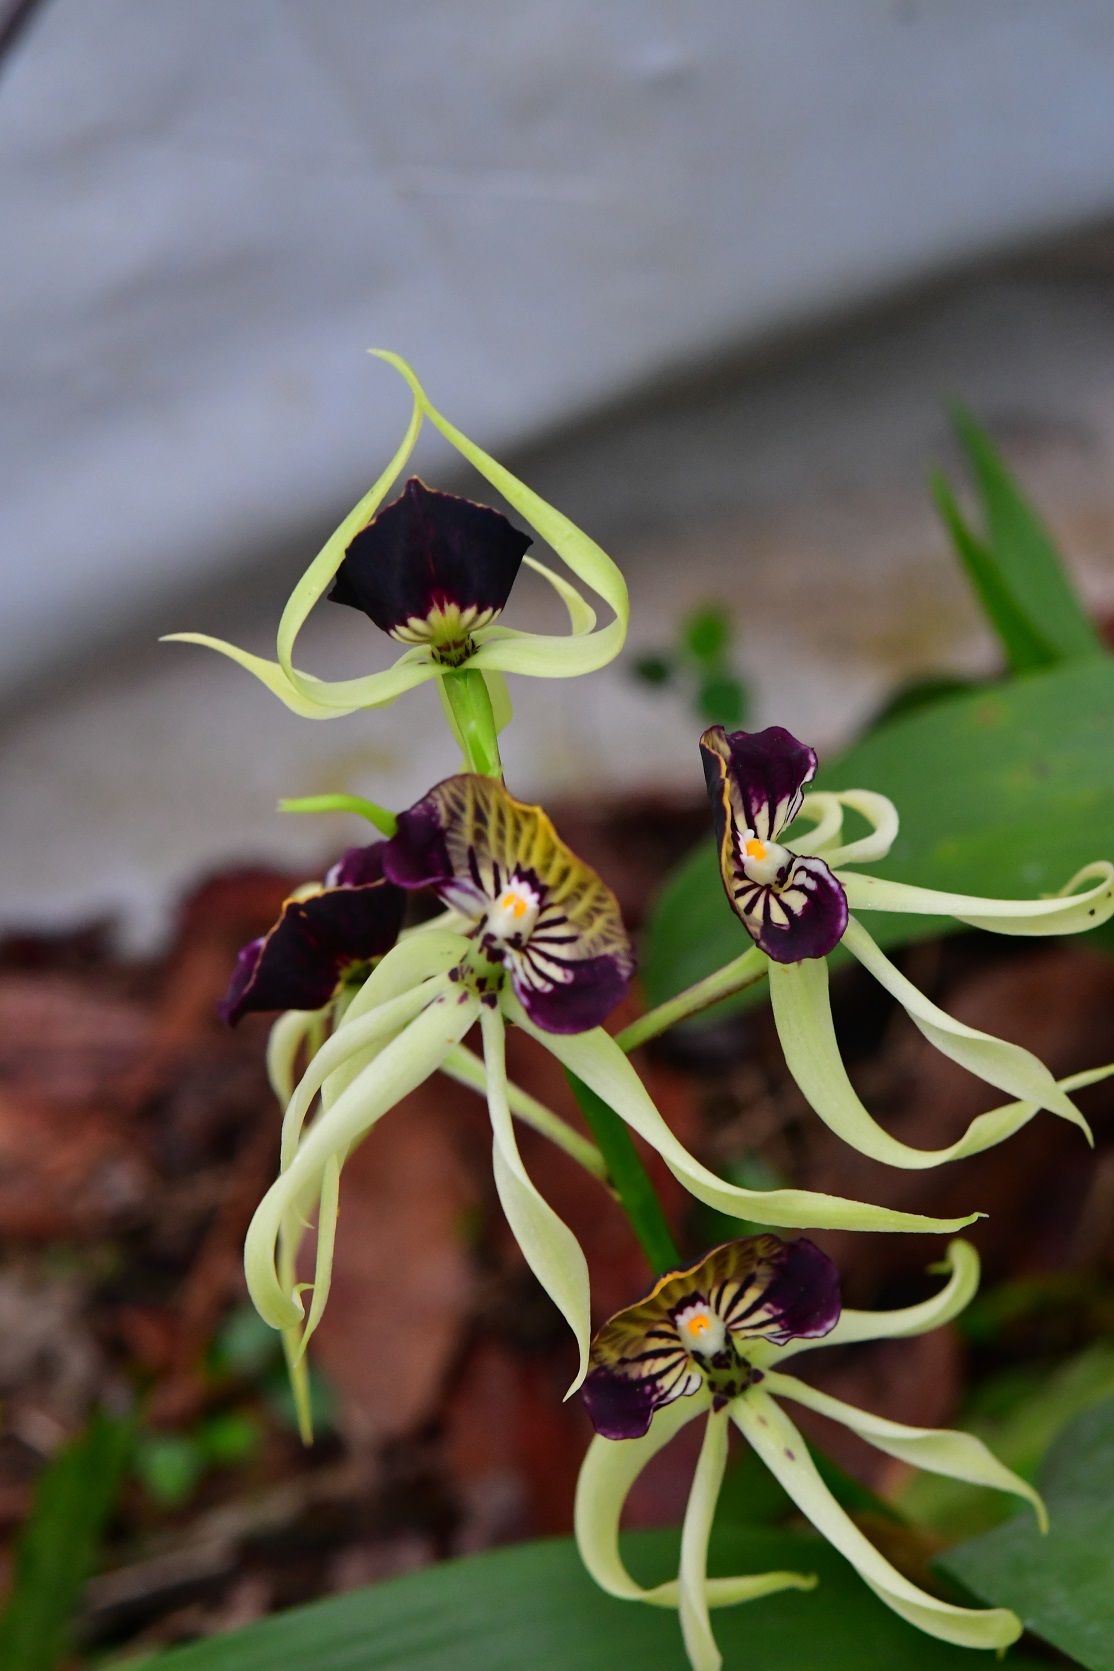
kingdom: Plantae
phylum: Tracheophyta
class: Liliopsida
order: Asparagales
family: Orchidaceae
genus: Prosthechea
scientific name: Prosthechea cochleata
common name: Clamshell orchid
